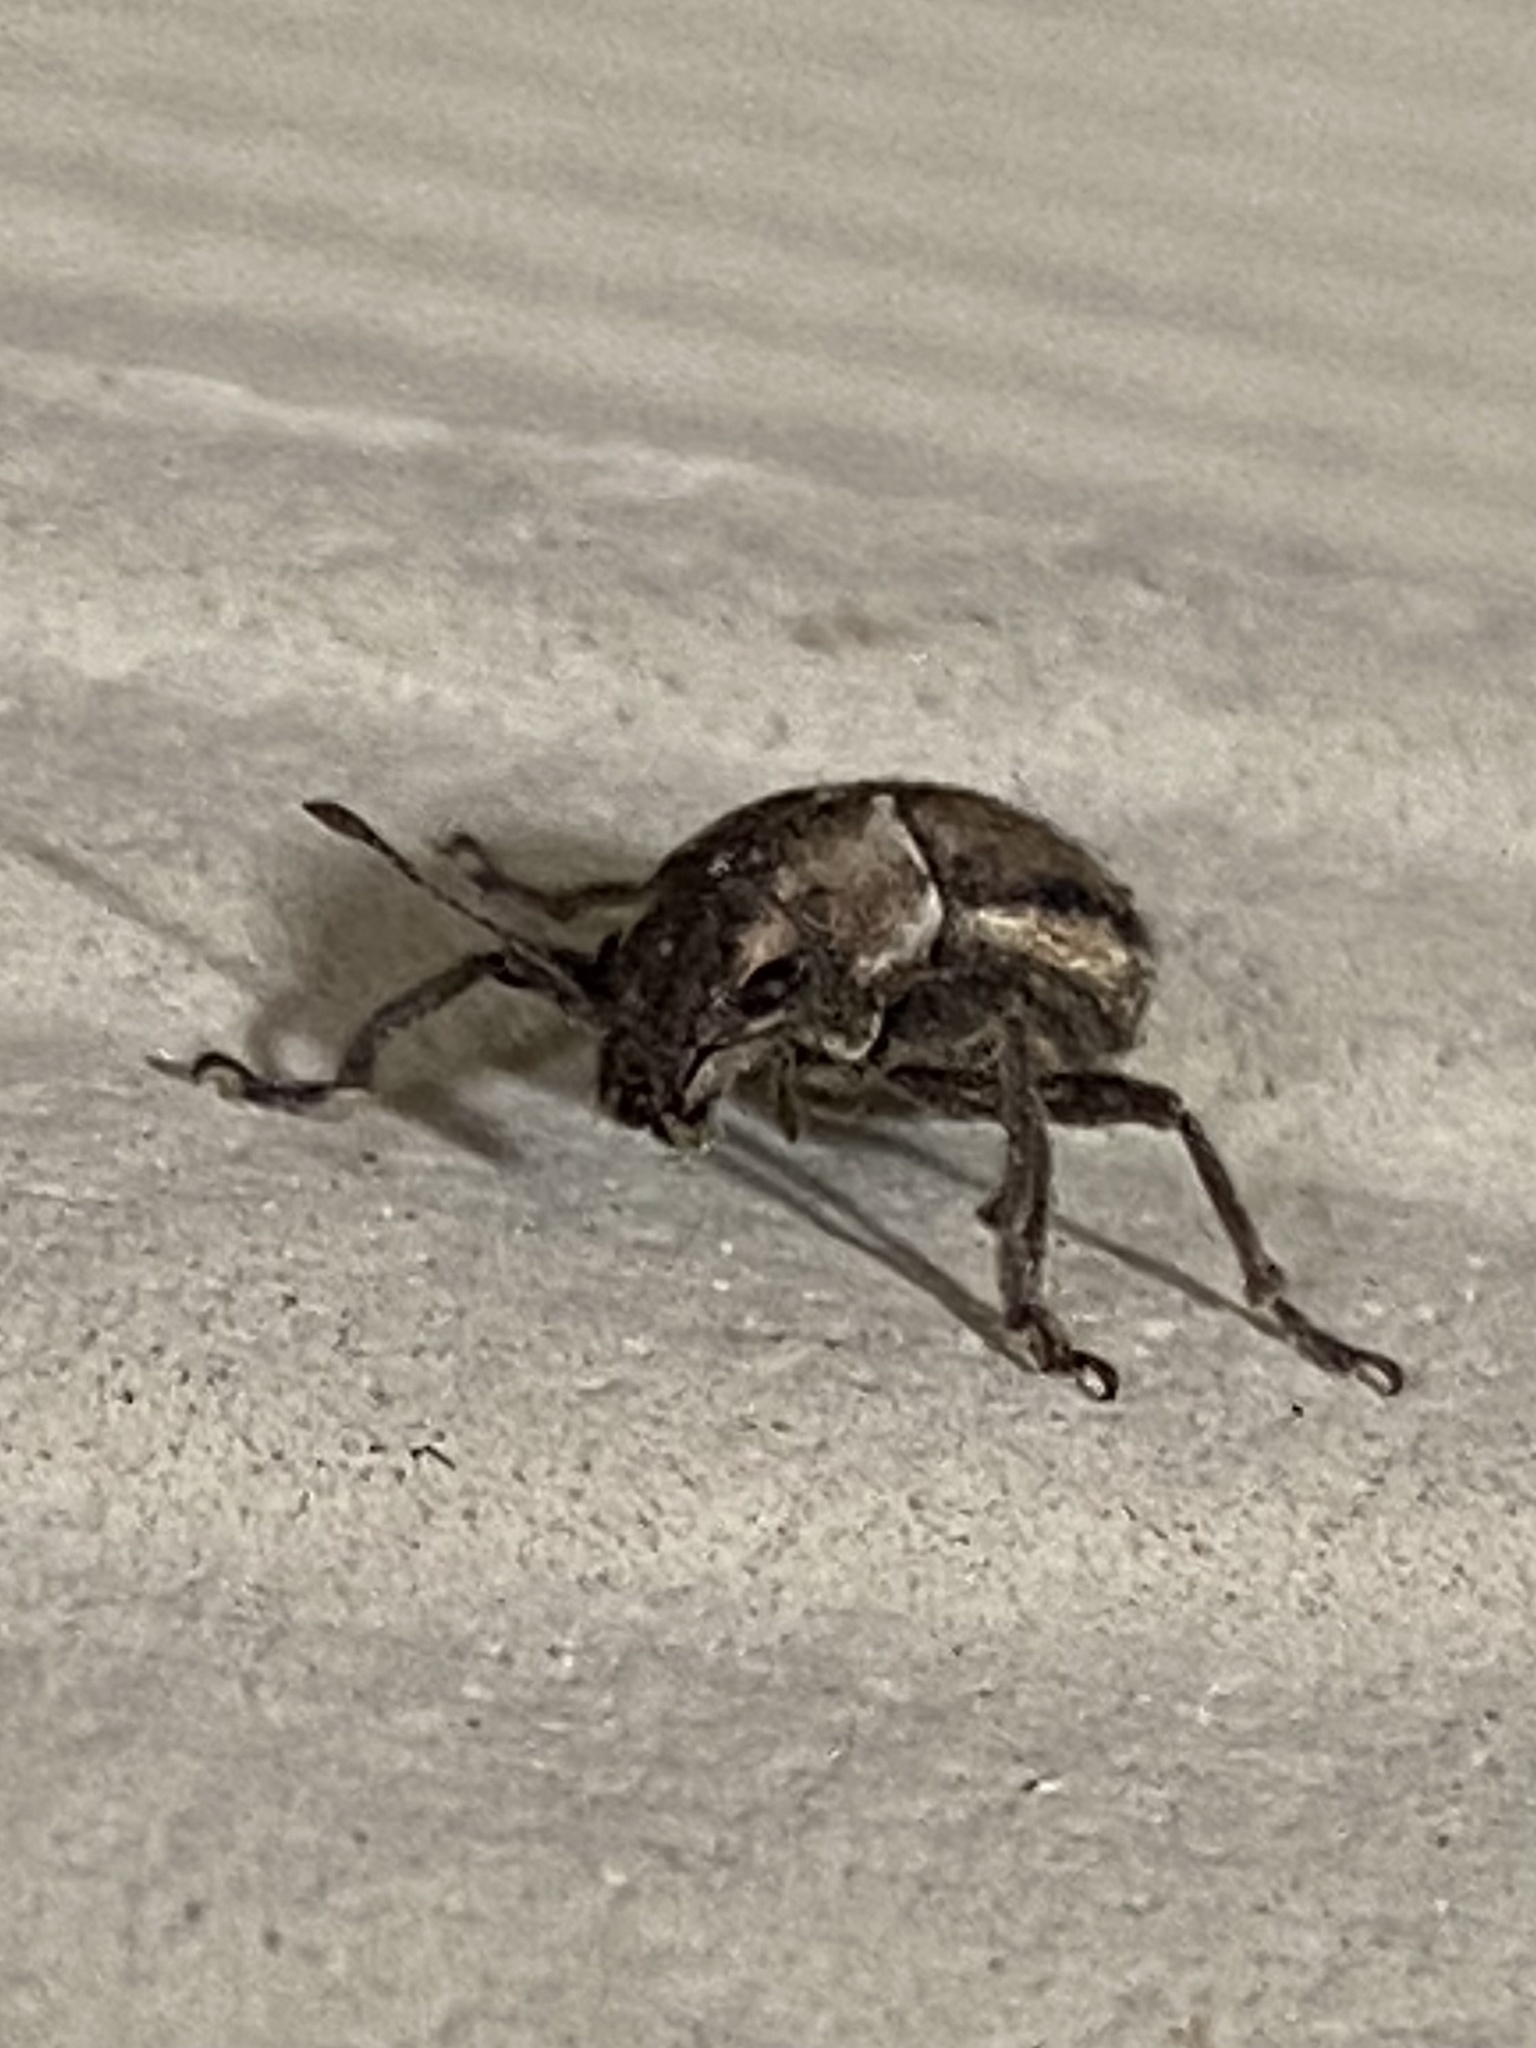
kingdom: Animalia
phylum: Arthropoda
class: Insecta
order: Coleoptera
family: Curculionidae
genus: Naupactus
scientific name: Naupactus peregrinus
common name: Whitefringed beetle
